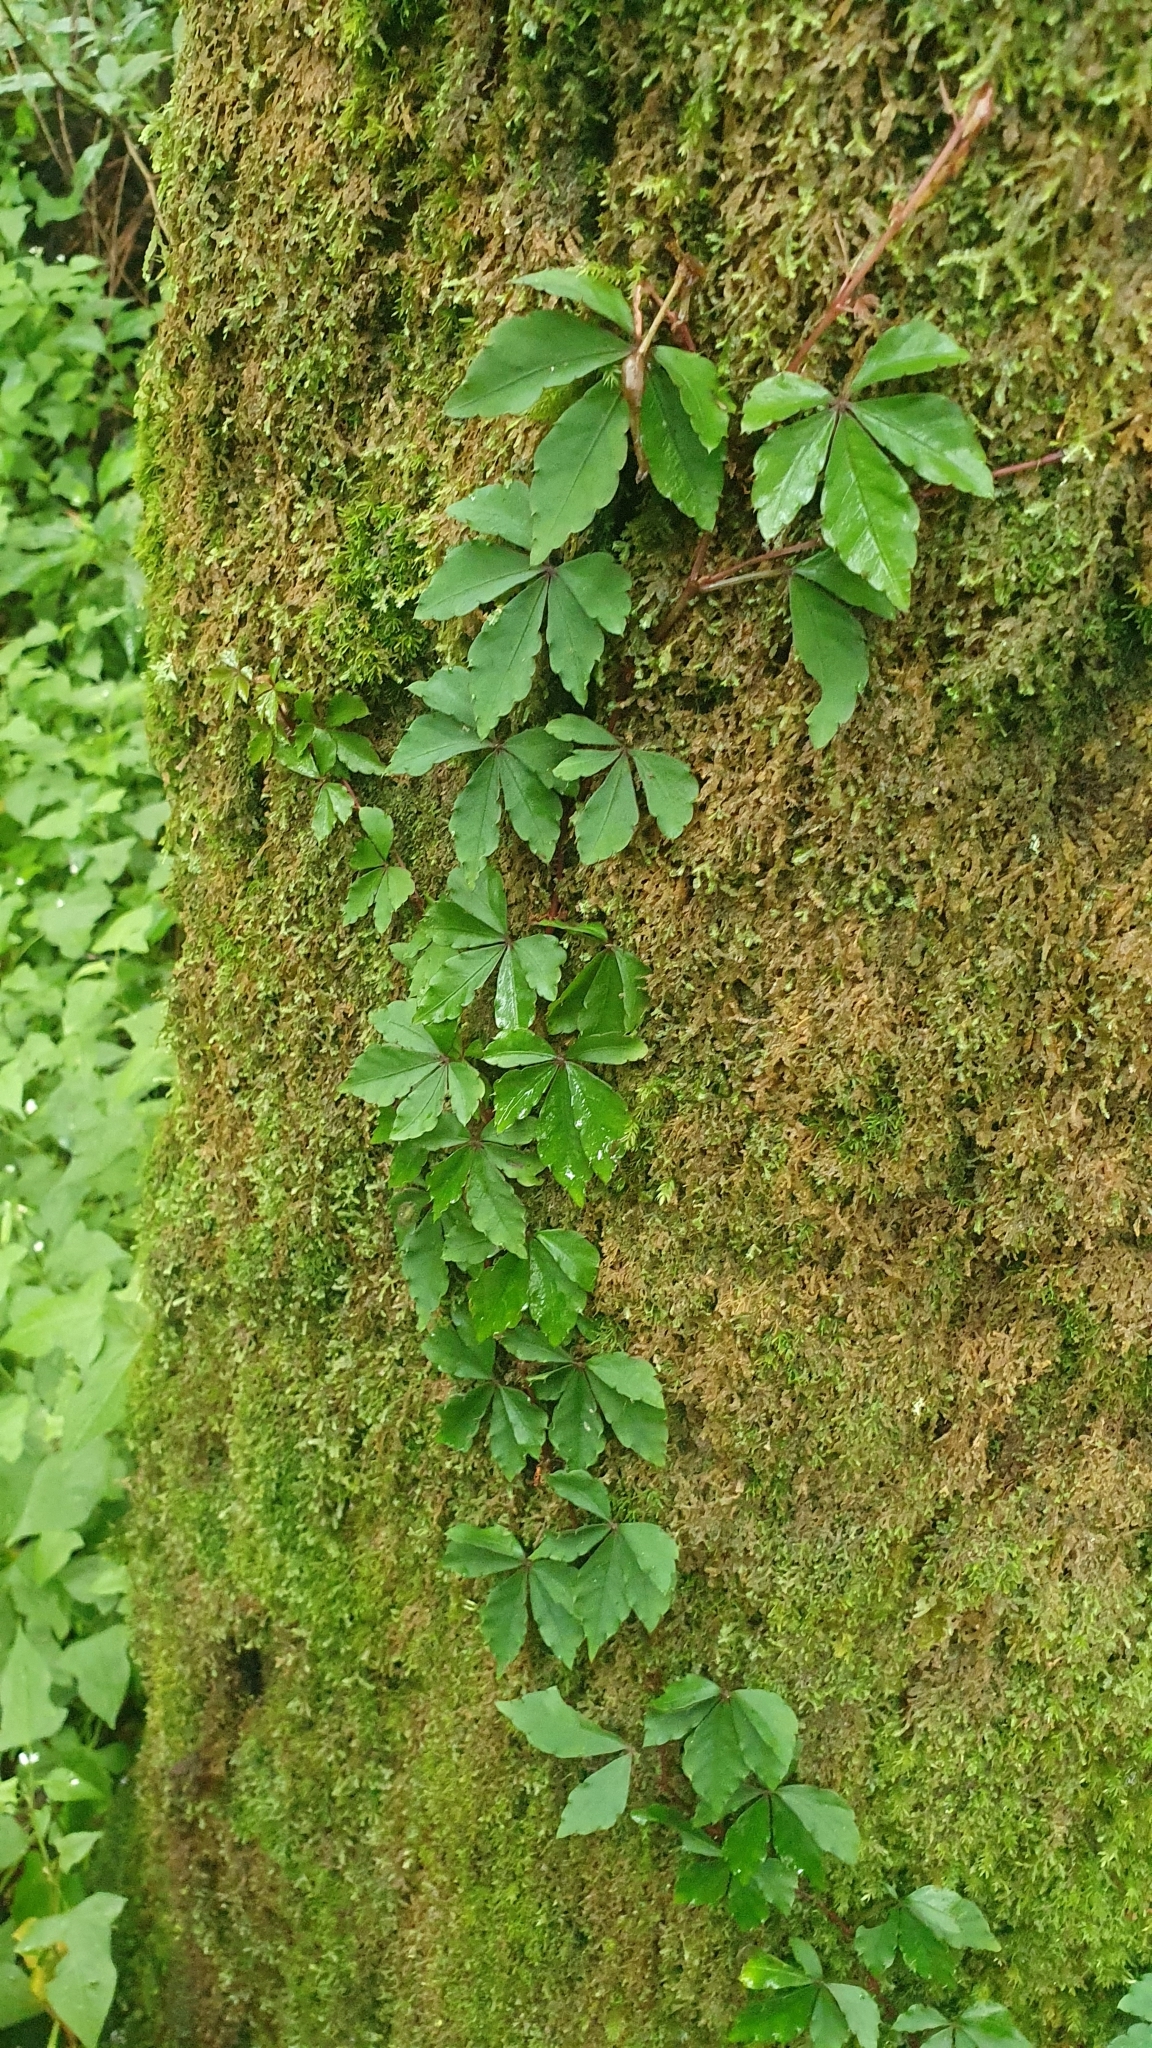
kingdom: Plantae
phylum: Tracheophyta
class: Magnoliopsida
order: Vitales
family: Vitaceae
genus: Tetrastigma
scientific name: Tetrastigma obtectum
